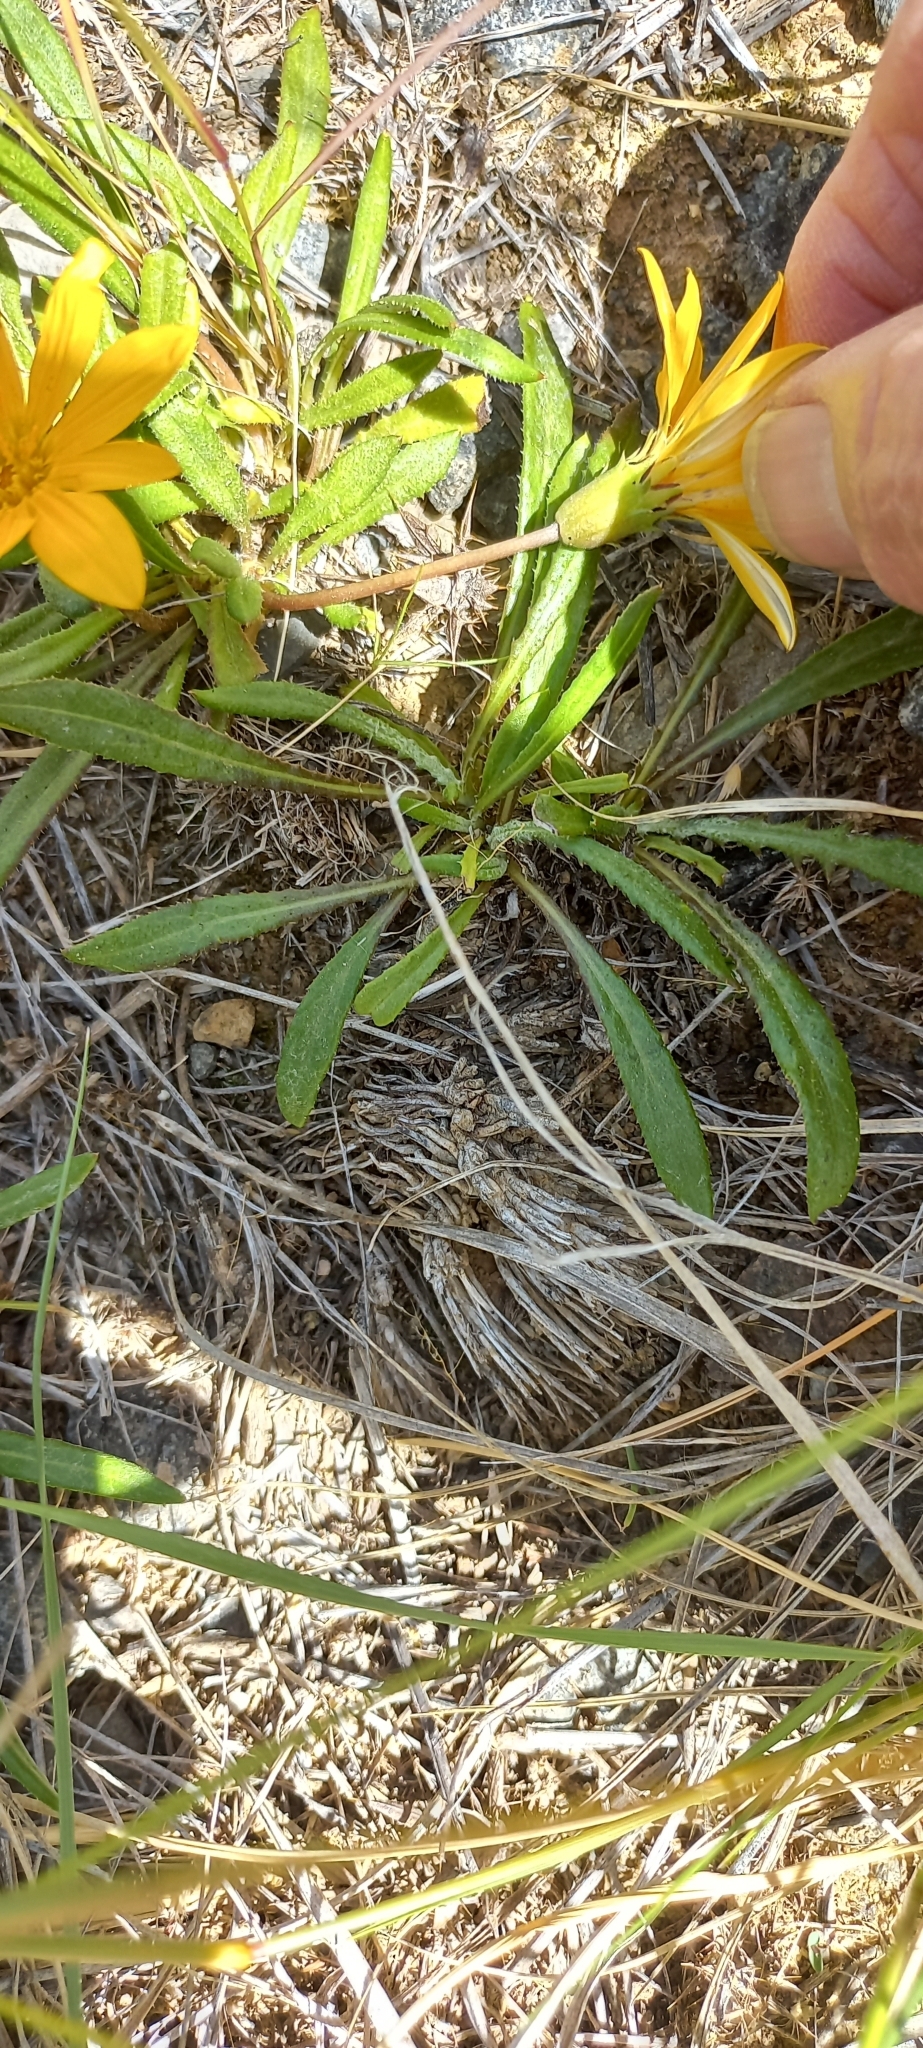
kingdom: Plantae
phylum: Tracheophyta
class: Magnoliopsida
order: Asterales
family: Asteraceae
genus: Gazania
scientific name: Gazania krebsiana
